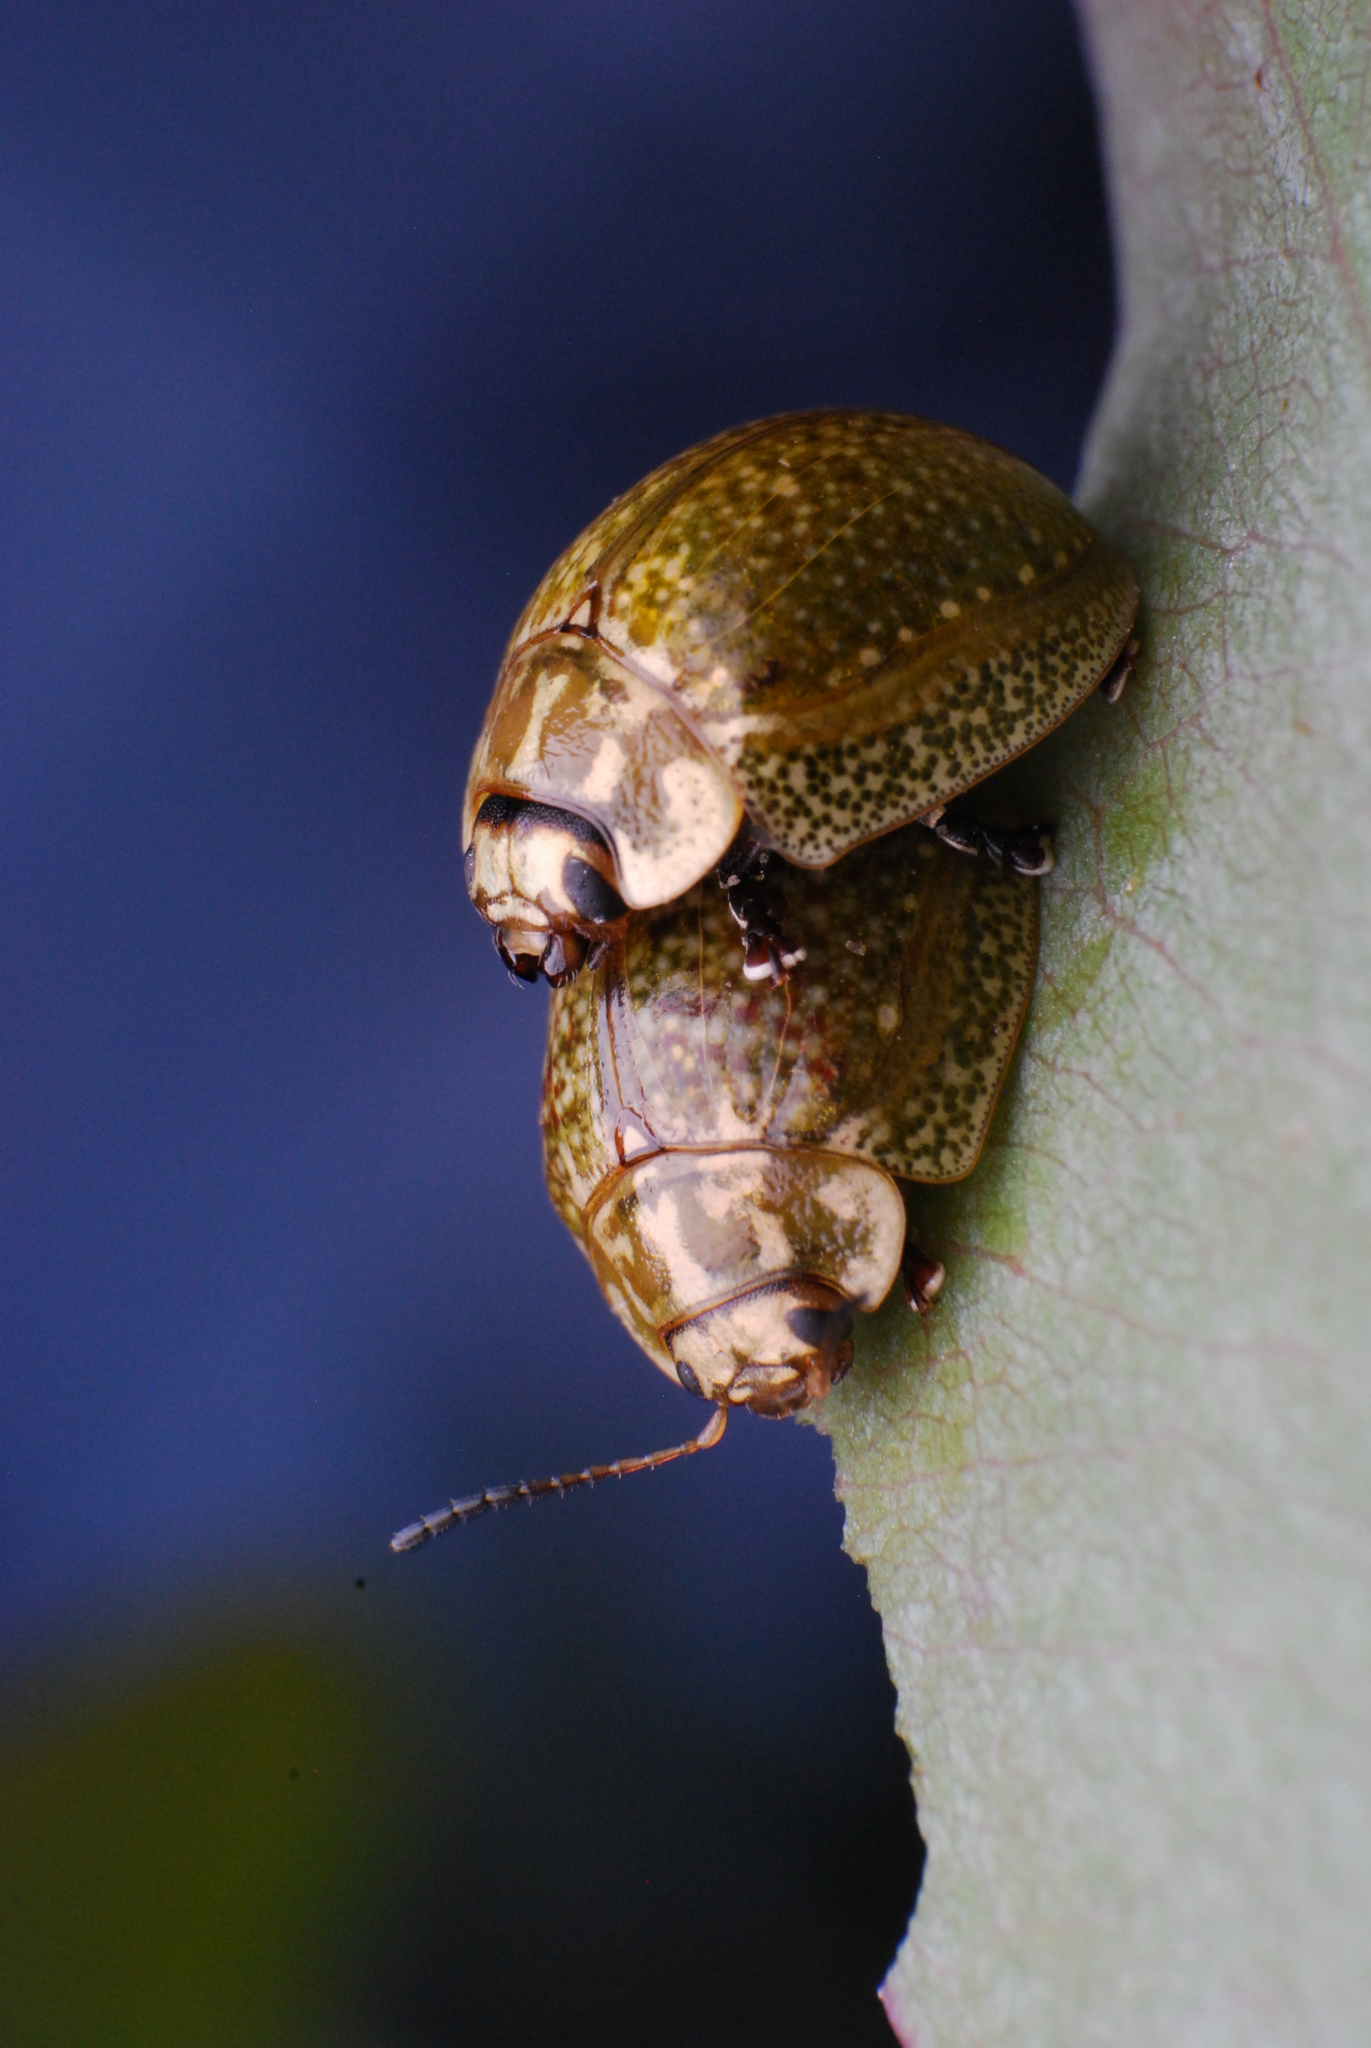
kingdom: Animalia
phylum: Arthropoda
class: Insecta
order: Coleoptera
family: Chrysomelidae
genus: Paropsisterna
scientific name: Paropsisterna cloelia
